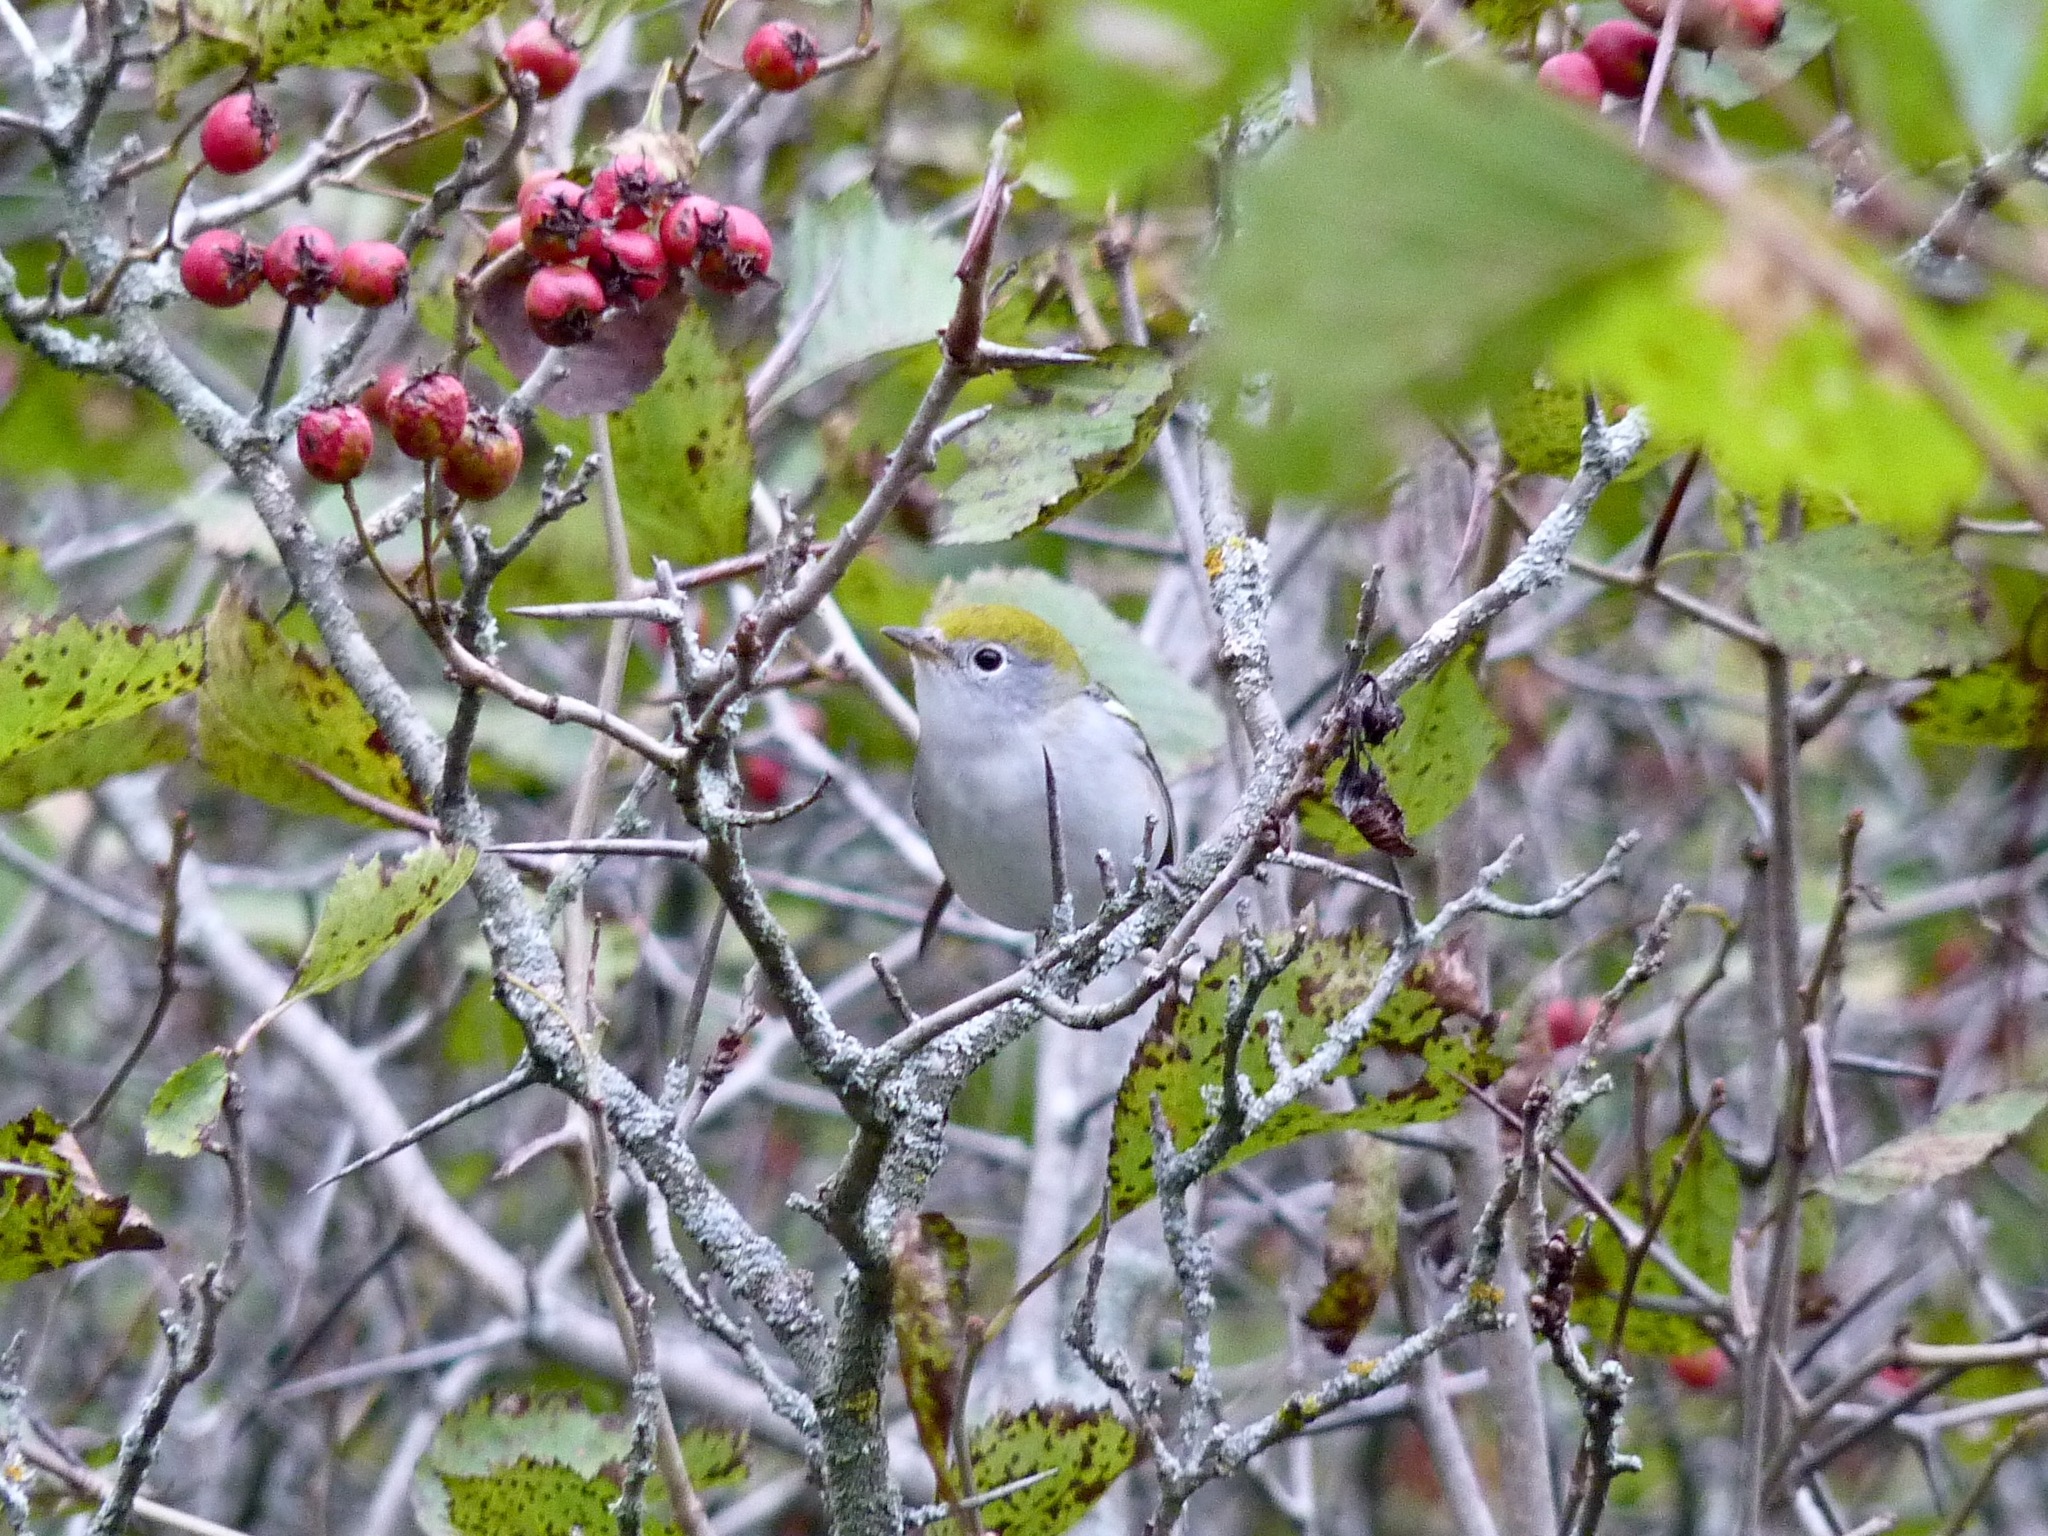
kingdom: Animalia
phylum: Chordata
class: Aves
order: Passeriformes
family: Parulidae
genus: Setophaga
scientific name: Setophaga pensylvanica
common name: Chestnut-sided warbler
